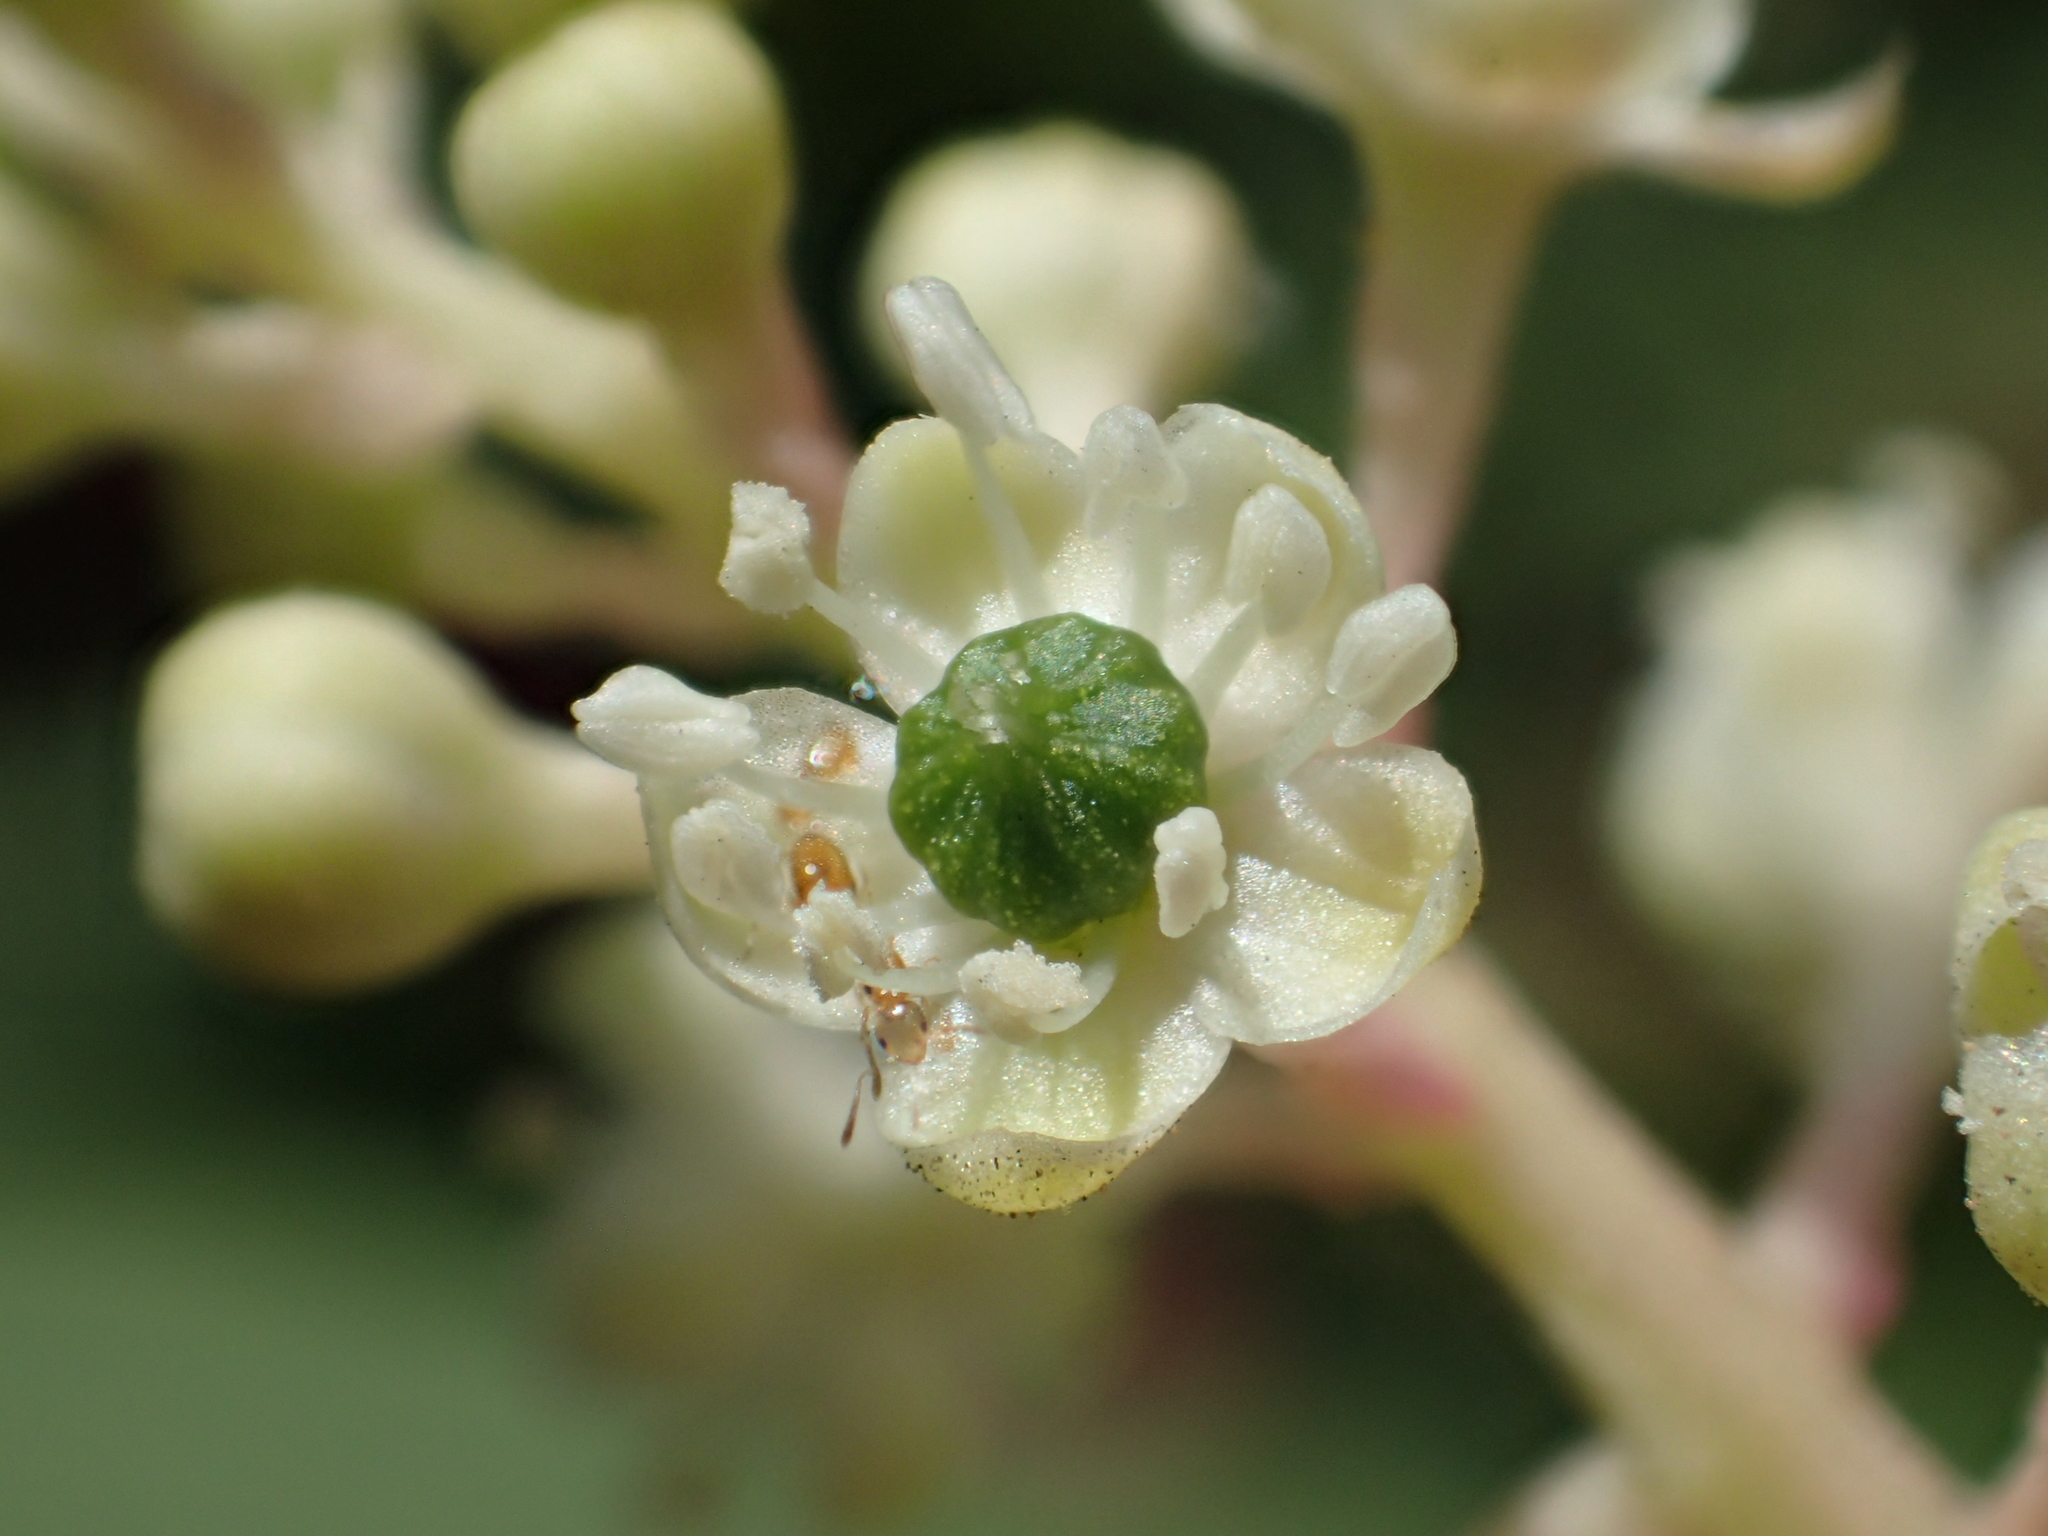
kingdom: Plantae
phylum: Tracheophyta
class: Magnoliopsida
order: Caryophyllales
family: Phytolaccaceae
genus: Phytolacca
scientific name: Phytolacca americana
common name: American pokeweed
